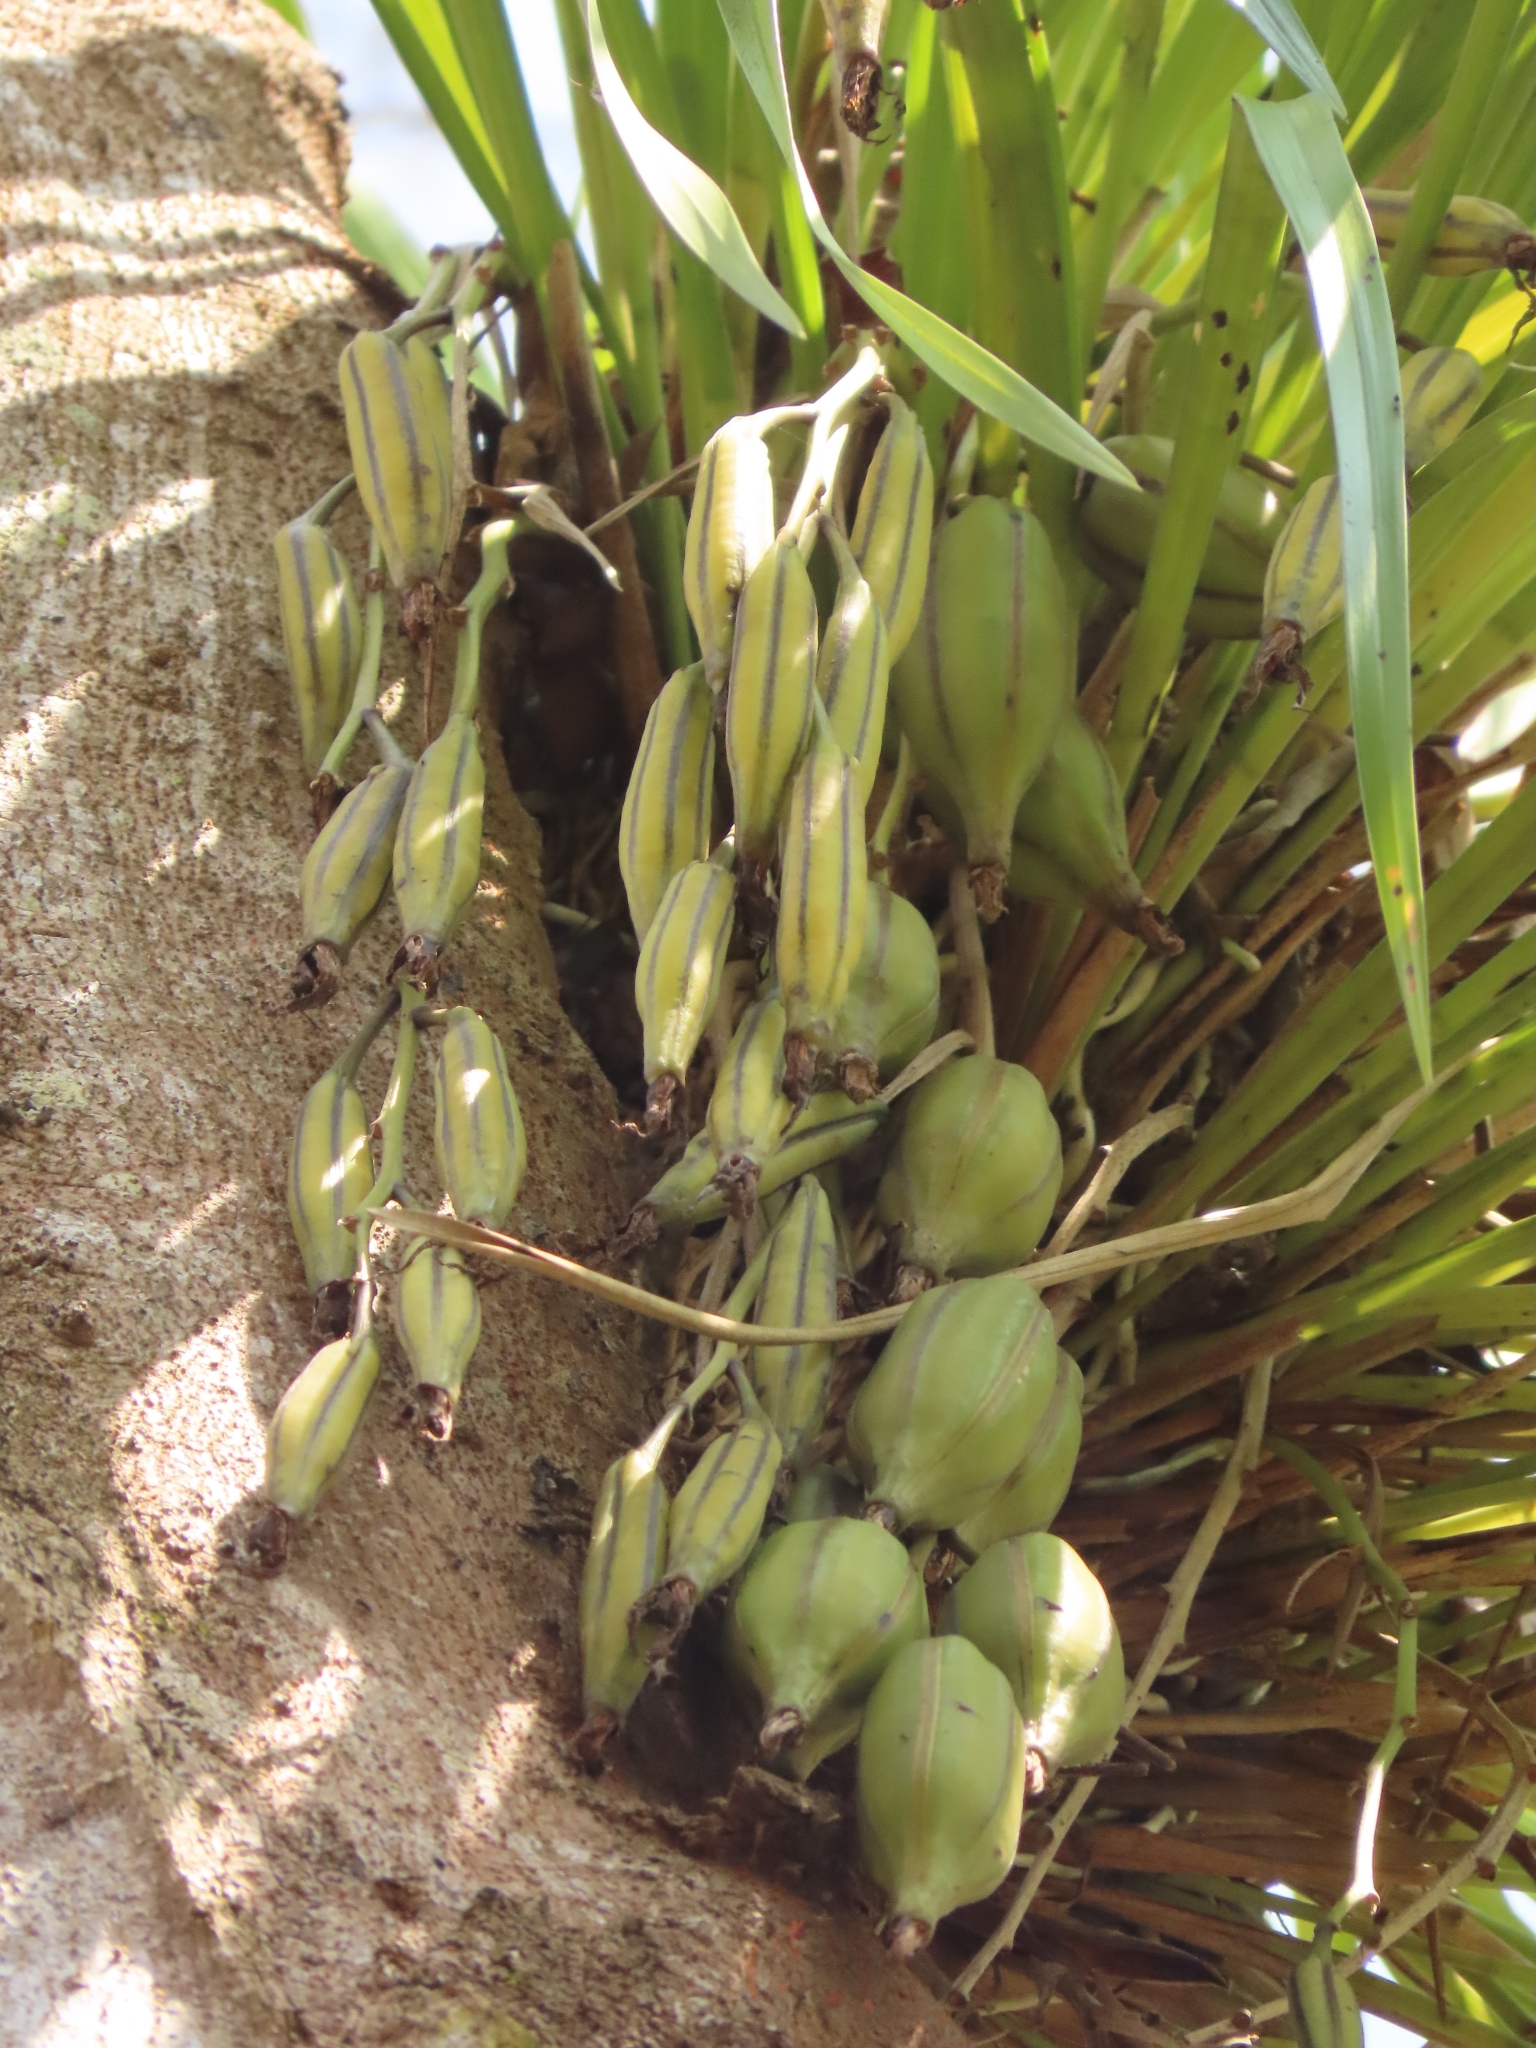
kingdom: Plantae
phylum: Tracheophyta
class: Liliopsida
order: Asparagales
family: Orchidaceae
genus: Cymbidium
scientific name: Cymbidium dayanum
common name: Orchid
